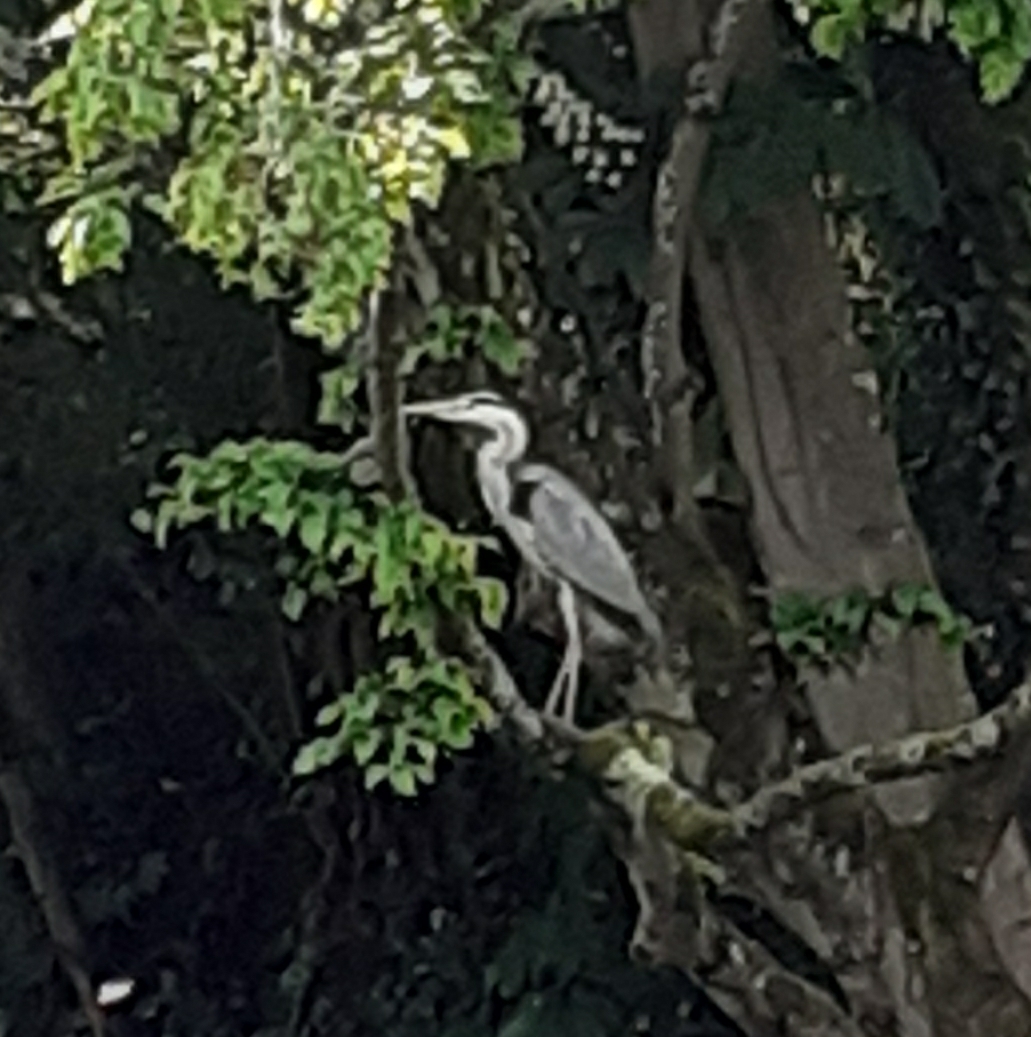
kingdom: Animalia
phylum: Chordata
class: Aves
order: Pelecaniformes
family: Ardeidae
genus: Ardea
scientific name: Ardea cinerea
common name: Grey heron
